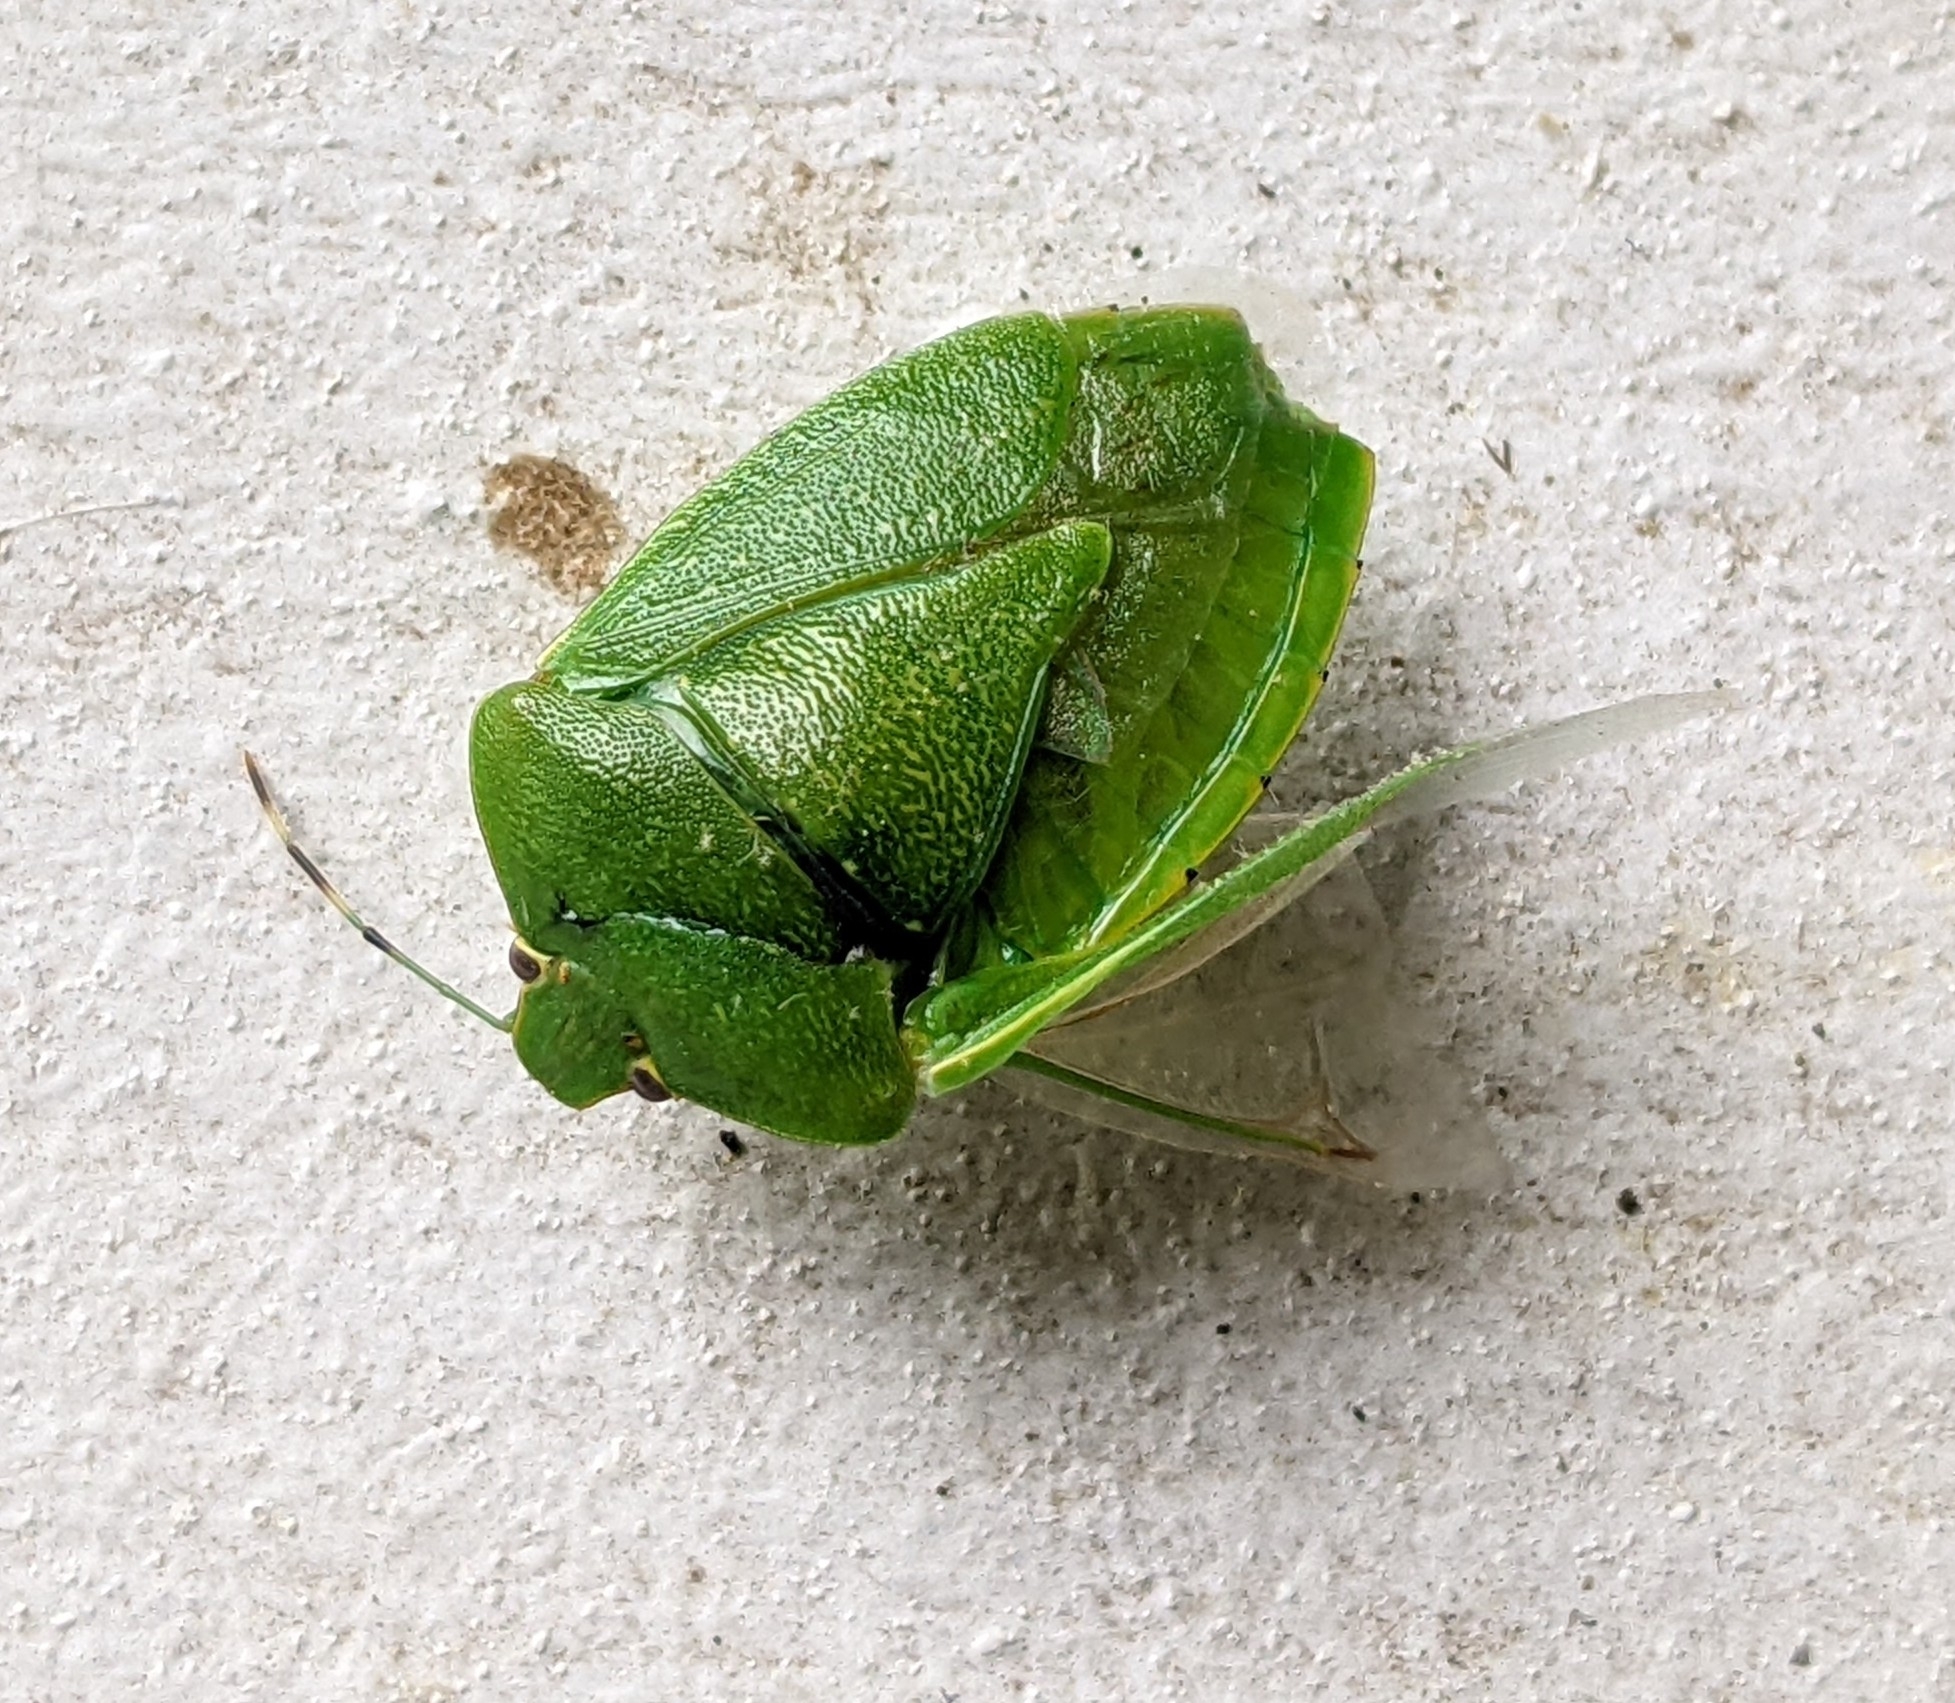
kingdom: Animalia
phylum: Arthropoda
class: Insecta
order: Hemiptera
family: Pentatomidae
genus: Chinavia
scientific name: Chinavia hilaris
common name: Green stink bug
